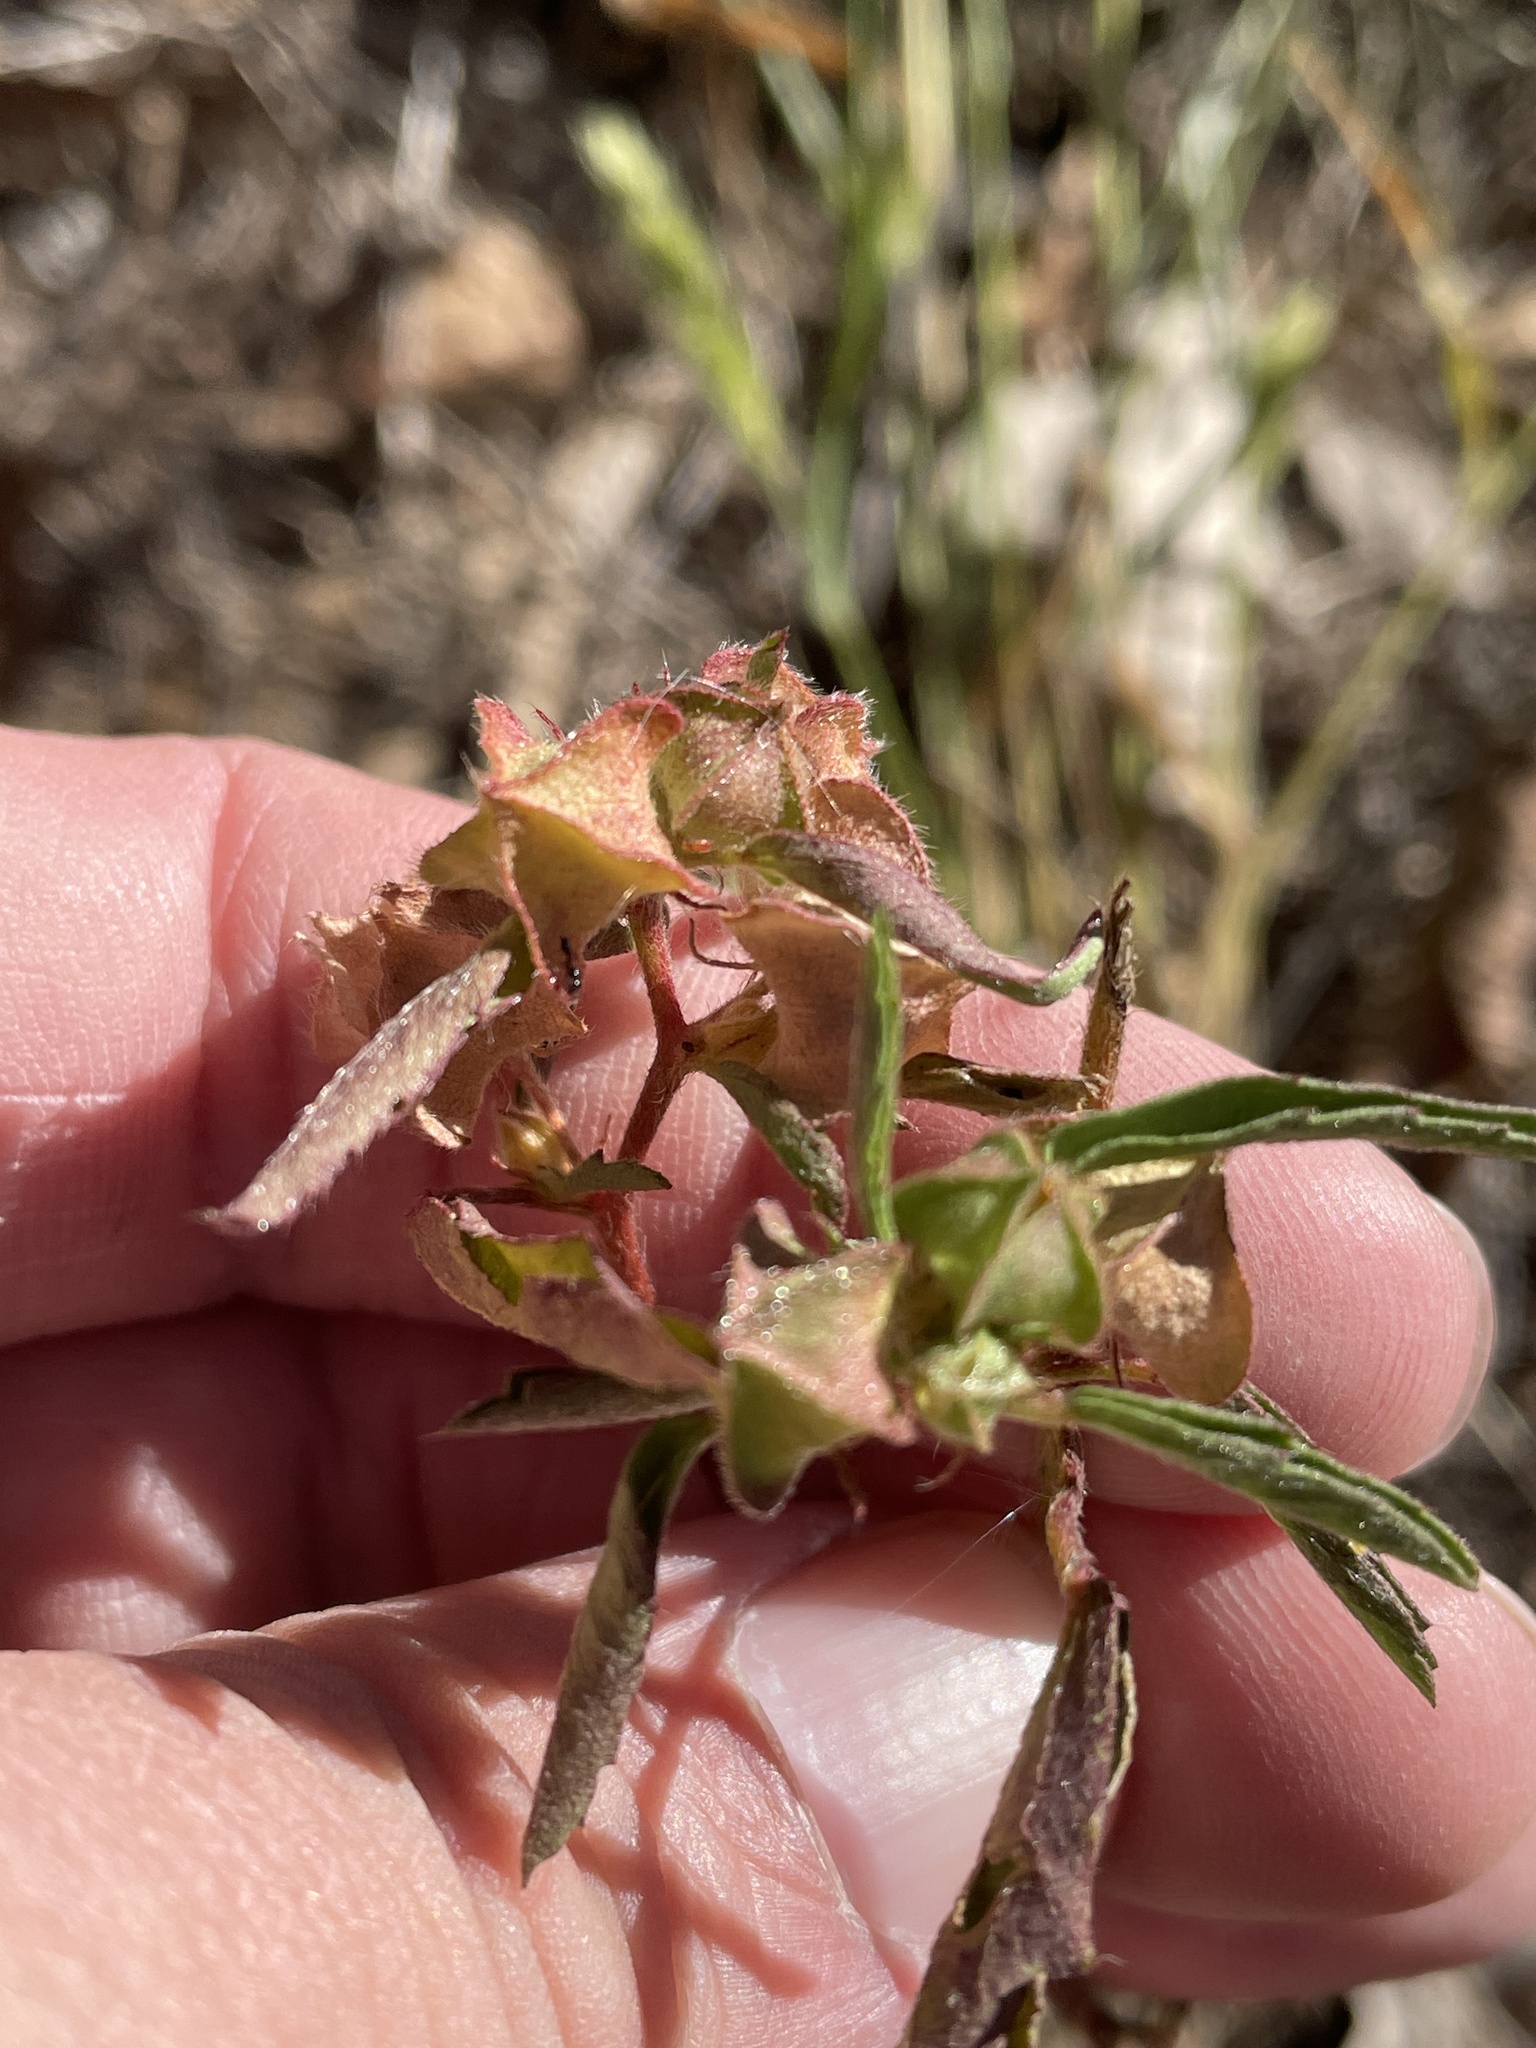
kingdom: Plantae
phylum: Tracheophyta
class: Magnoliopsida
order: Malvales
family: Malvaceae
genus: Sida
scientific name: Sida spinosa
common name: Prickly fanpetals
